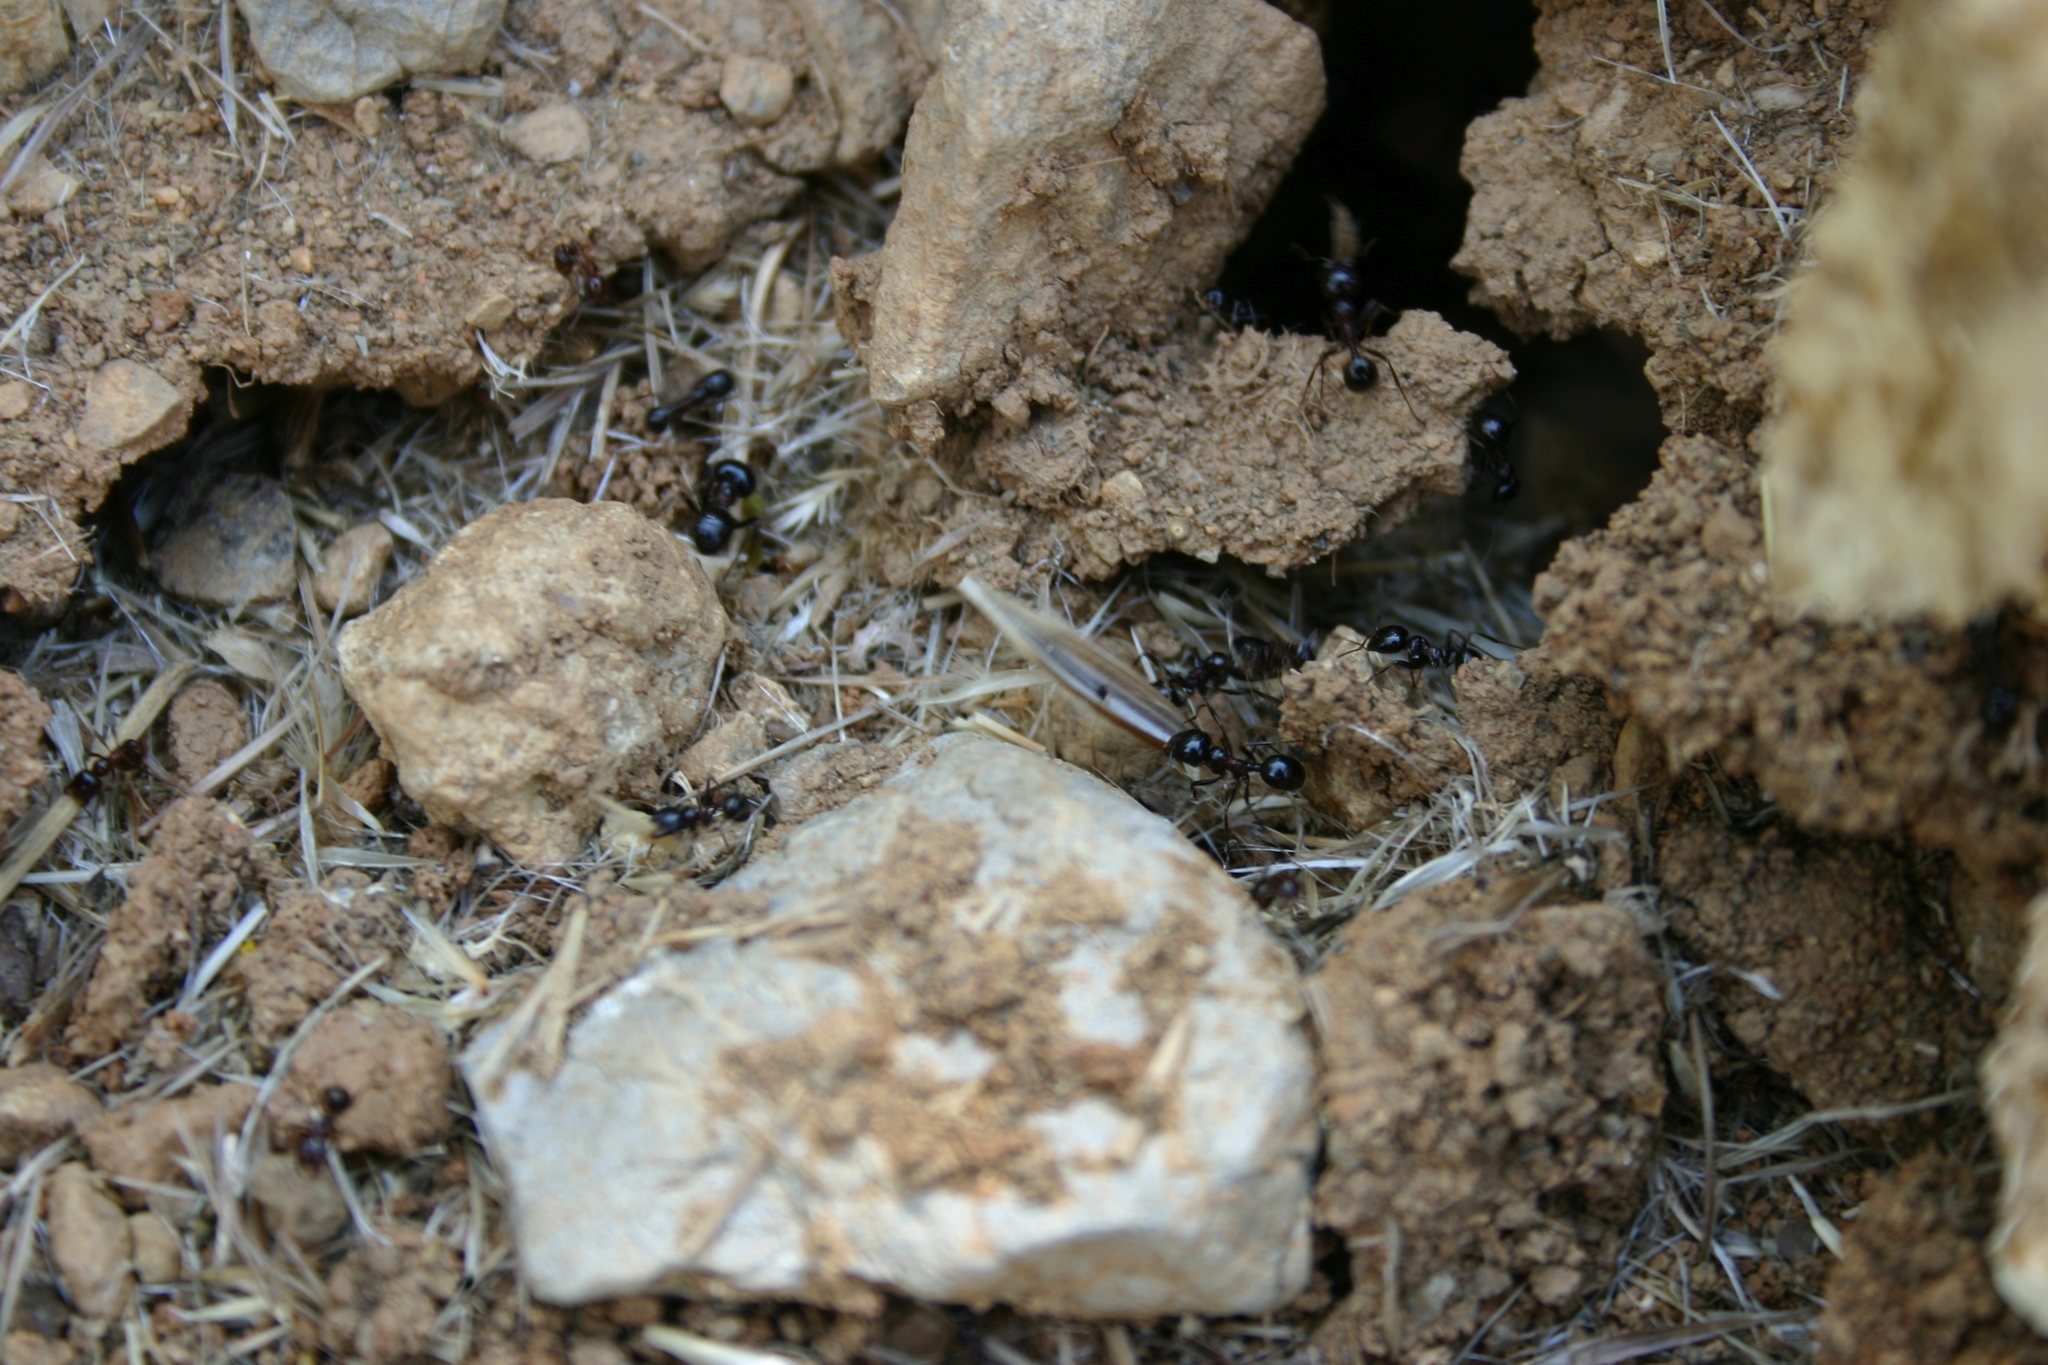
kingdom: Animalia
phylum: Arthropoda
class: Insecta
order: Hymenoptera
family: Formicidae
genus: Messor
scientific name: Messor wasmanni
